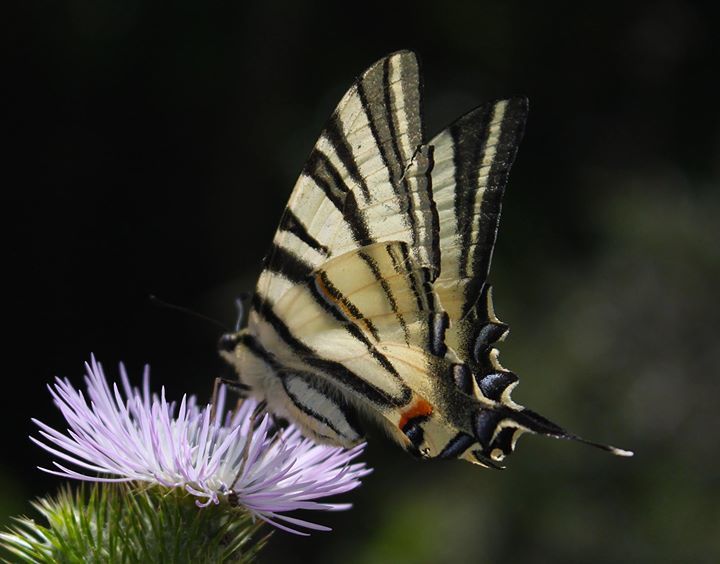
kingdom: Animalia
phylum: Arthropoda
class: Insecta
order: Lepidoptera
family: Papilionidae
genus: Iphiclides
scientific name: Iphiclides podalirius
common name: Scarce swallowtail
